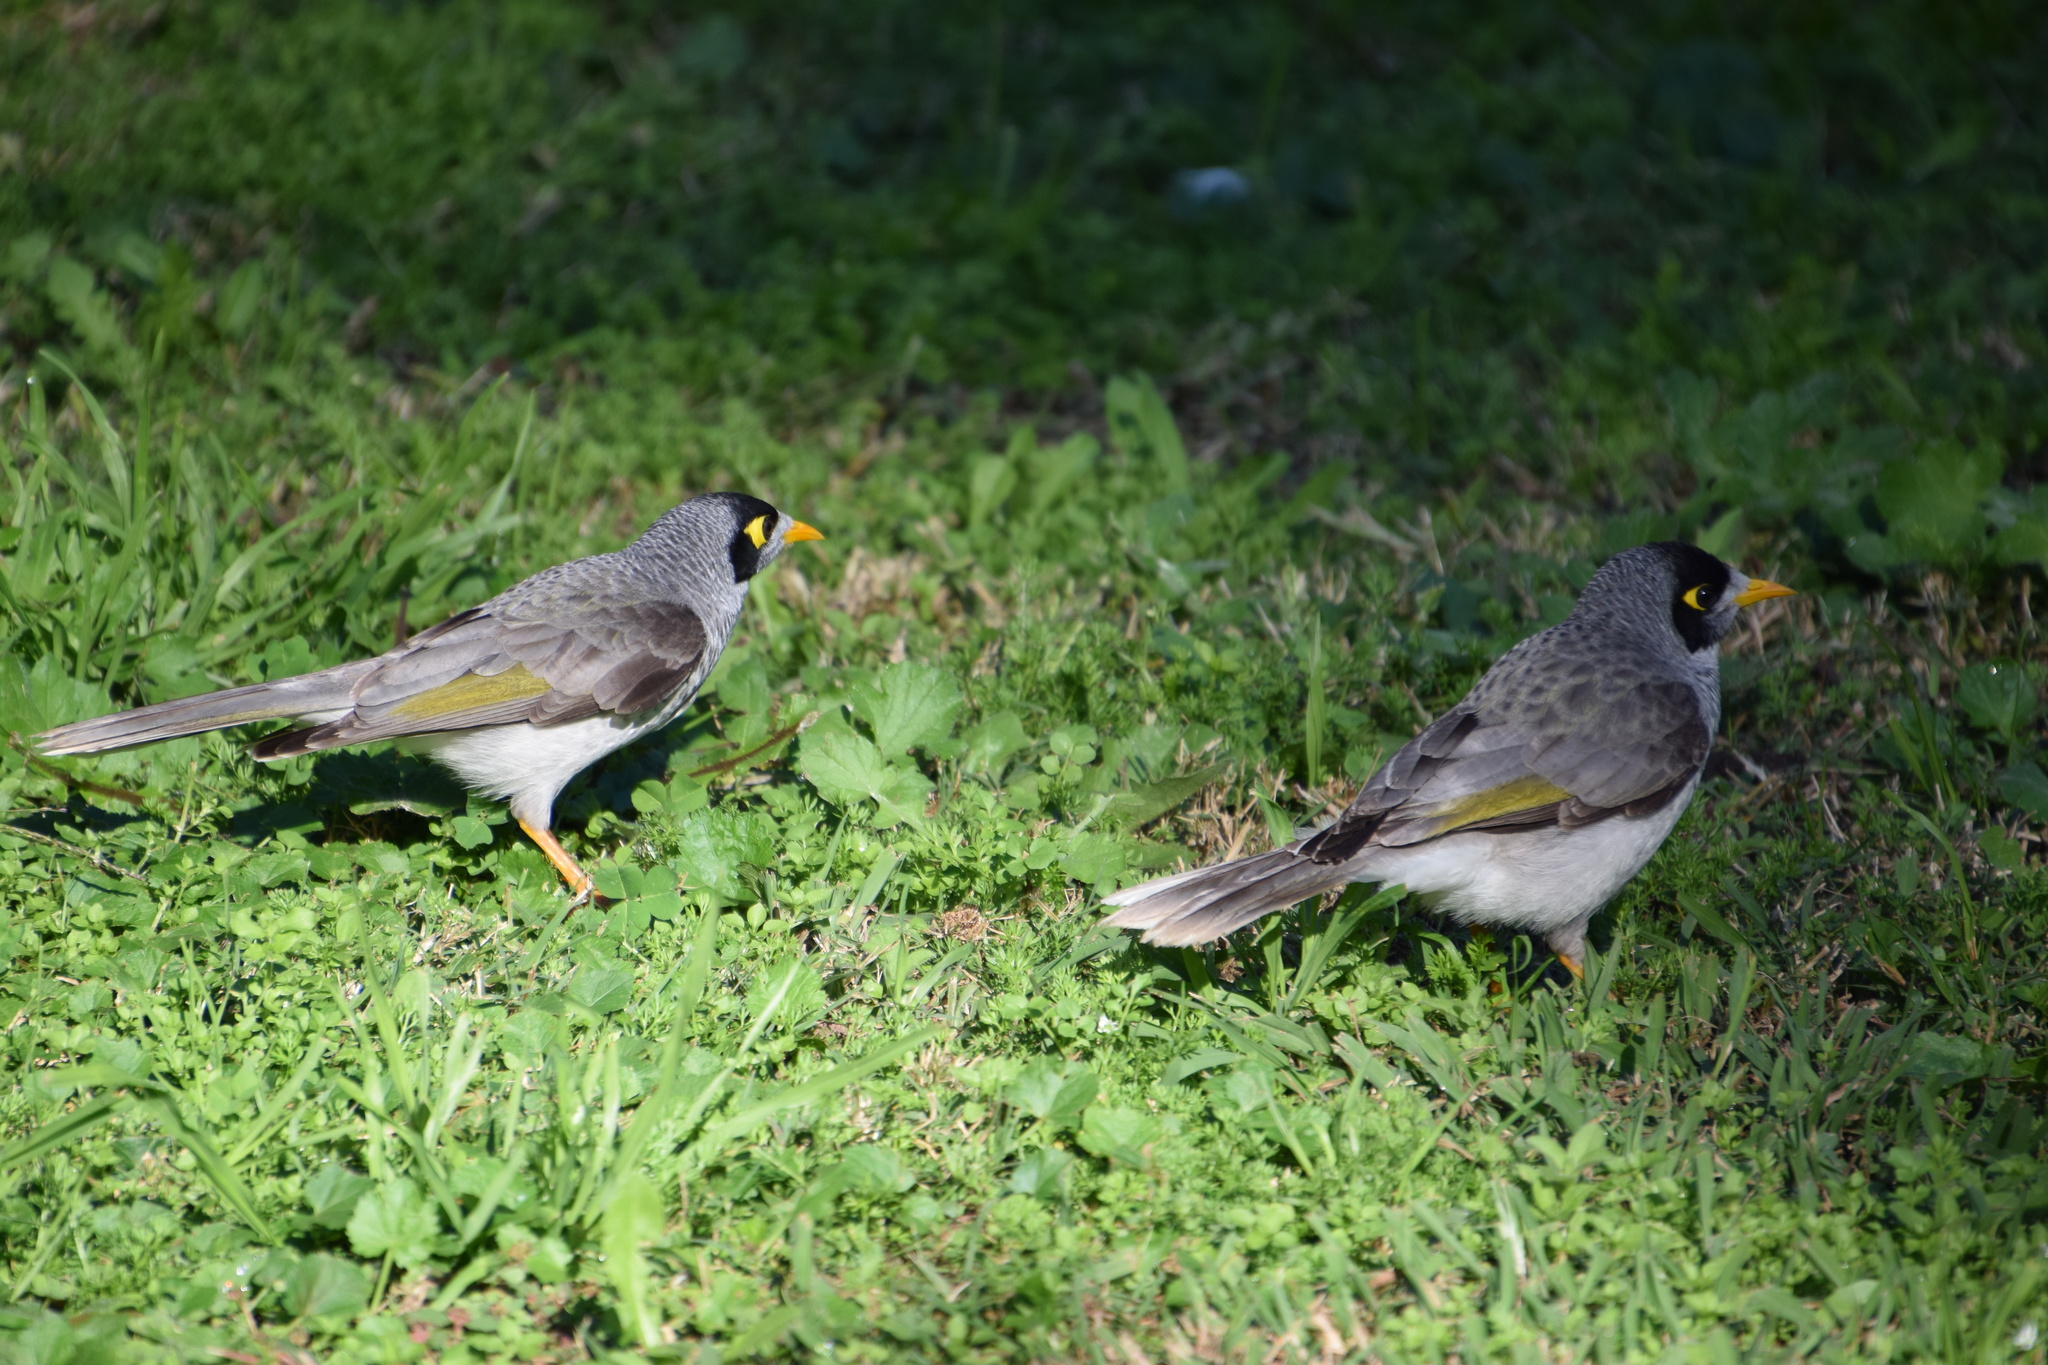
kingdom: Animalia
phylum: Chordata
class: Aves
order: Passeriformes
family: Meliphagidae
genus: Manorina
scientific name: Manorina melanocephala
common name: Noisy miner
